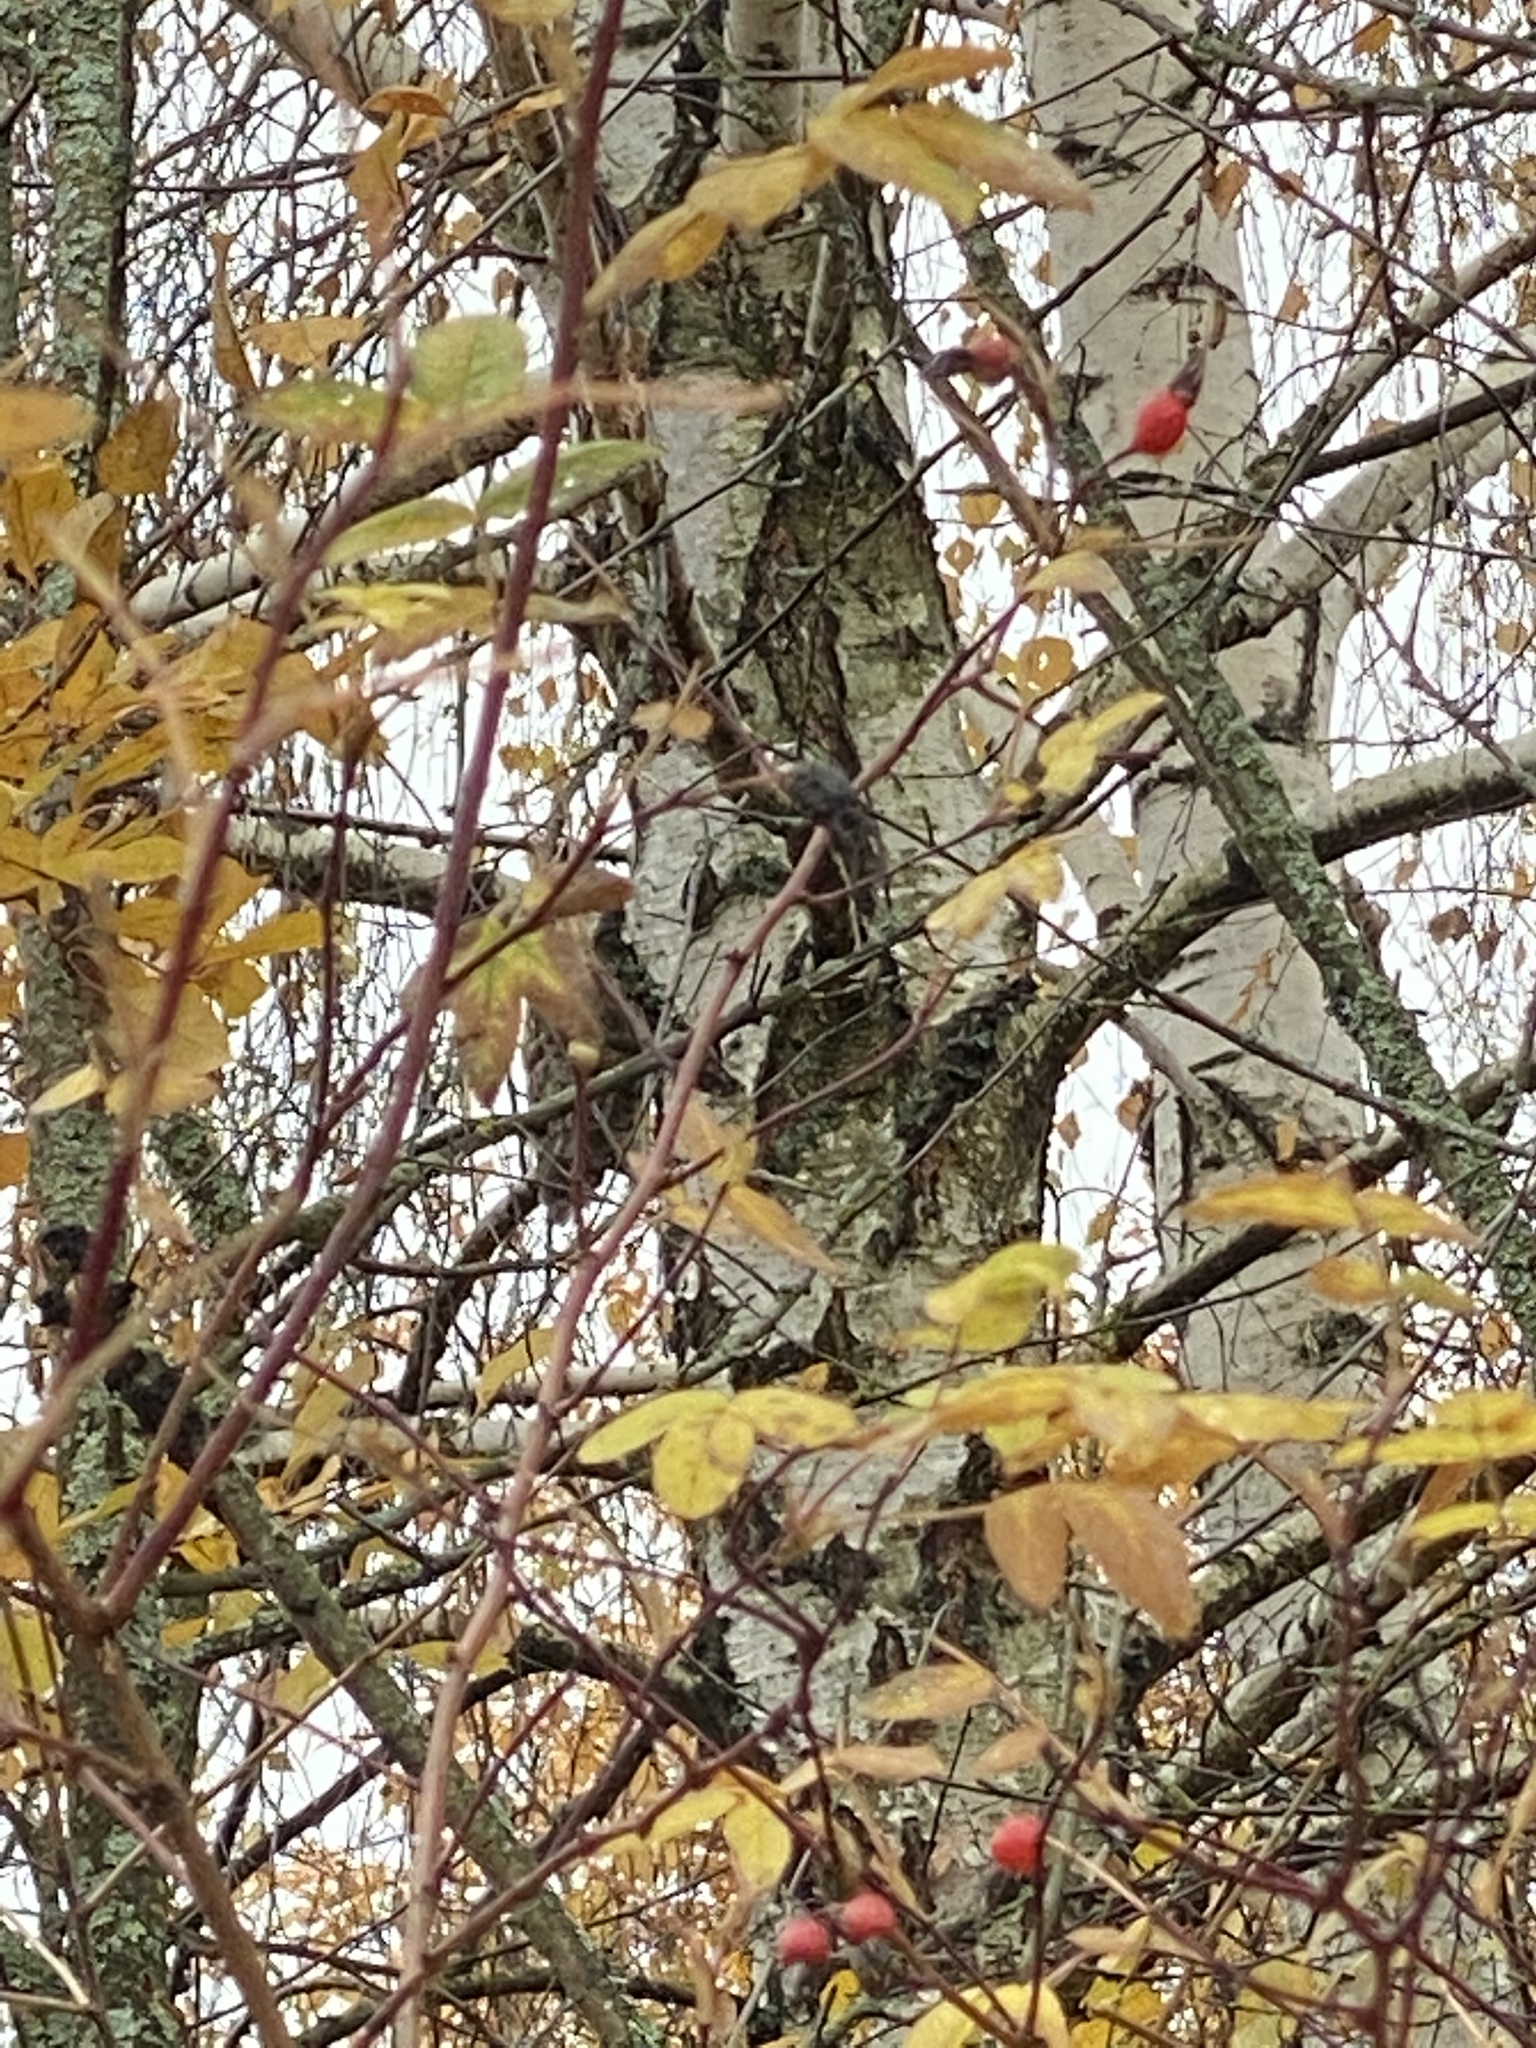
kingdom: Animalia
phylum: Chordata
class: Aves
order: Strigiformes
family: Strigidae
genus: Asio
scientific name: Asio otus
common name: Long-eared owl
